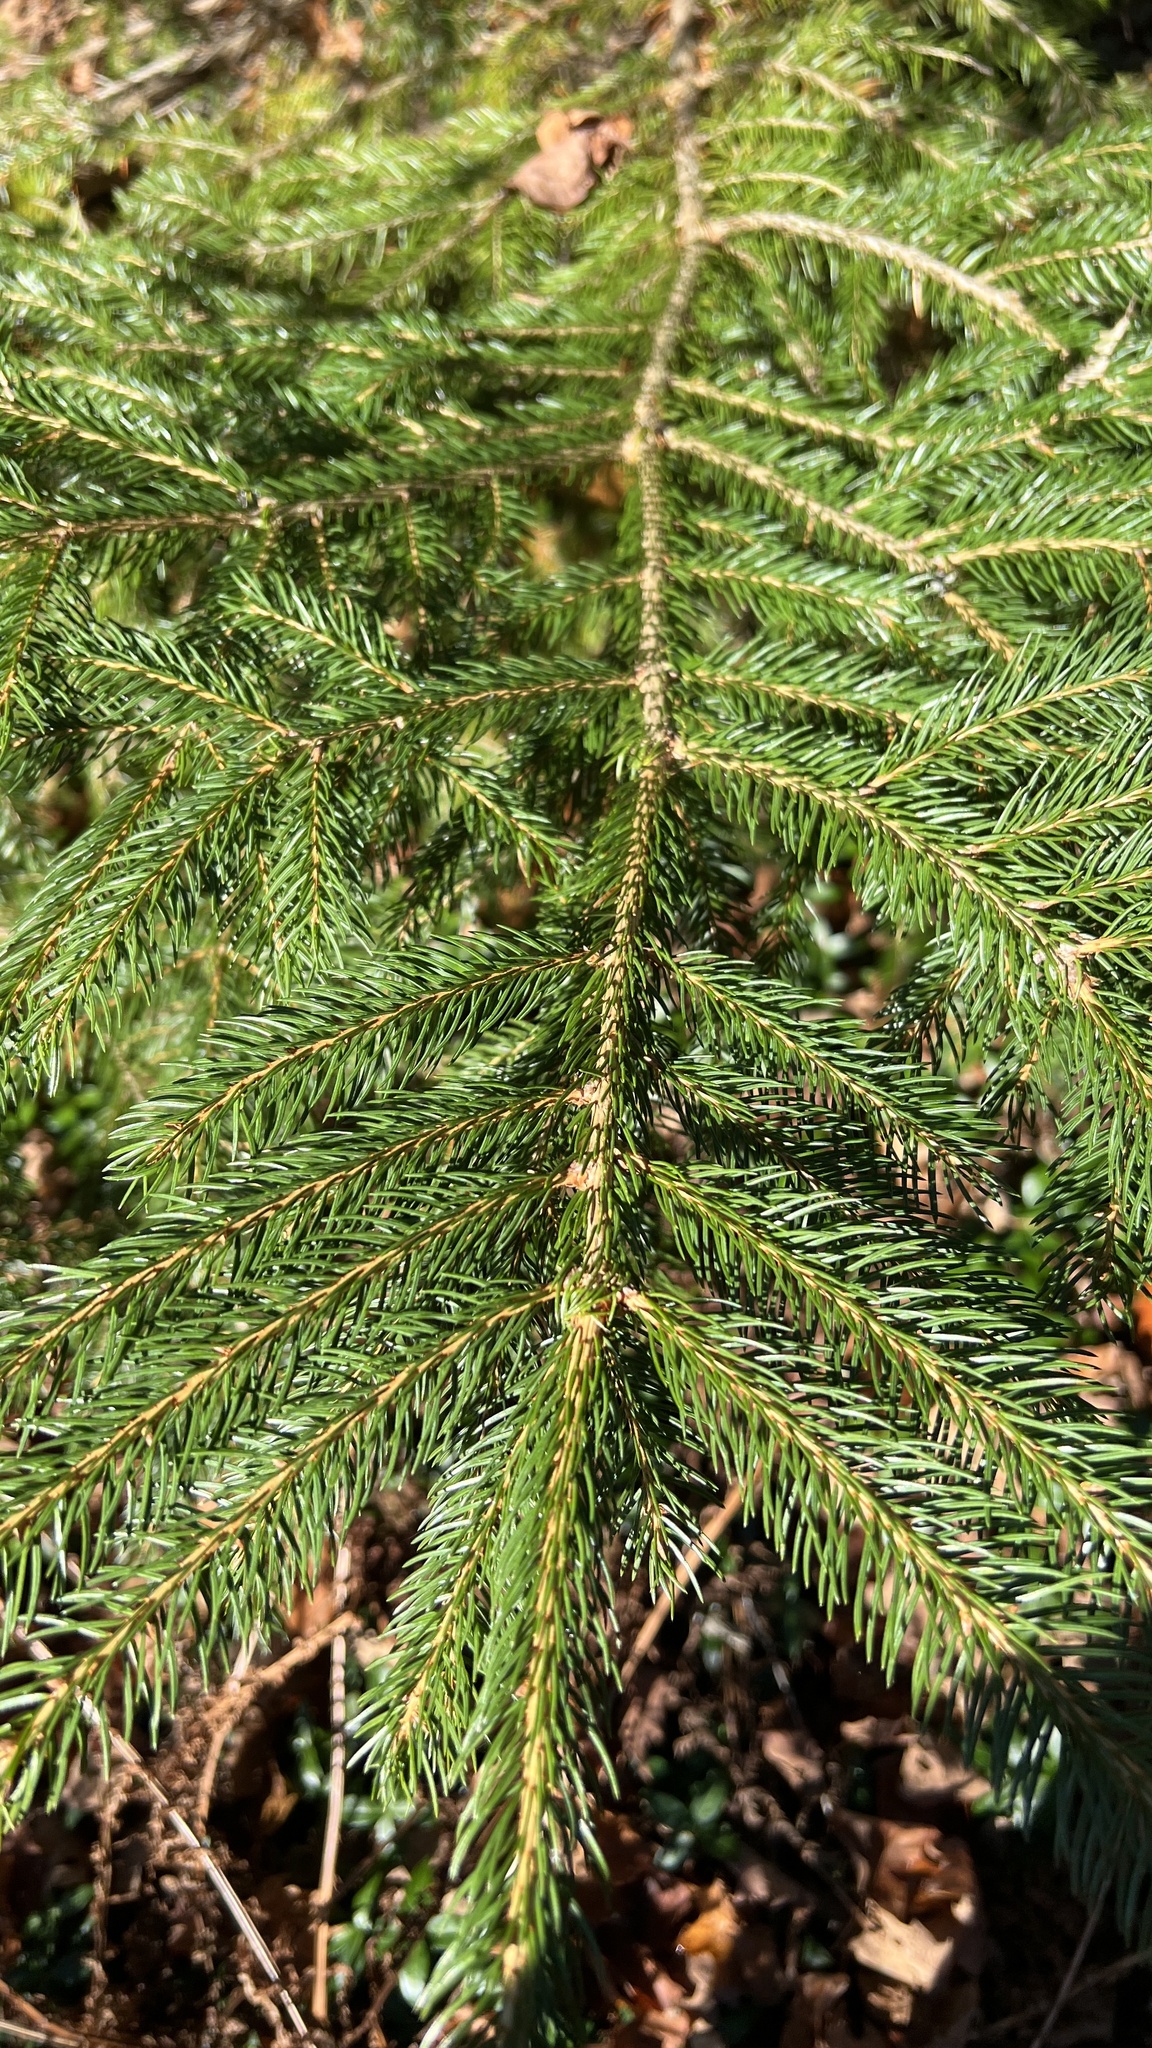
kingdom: Plantae
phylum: Tracheophyta
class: Pinopsida
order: Pinales
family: Pinaceae
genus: Picea
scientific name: Picea rubens
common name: Red spruce
